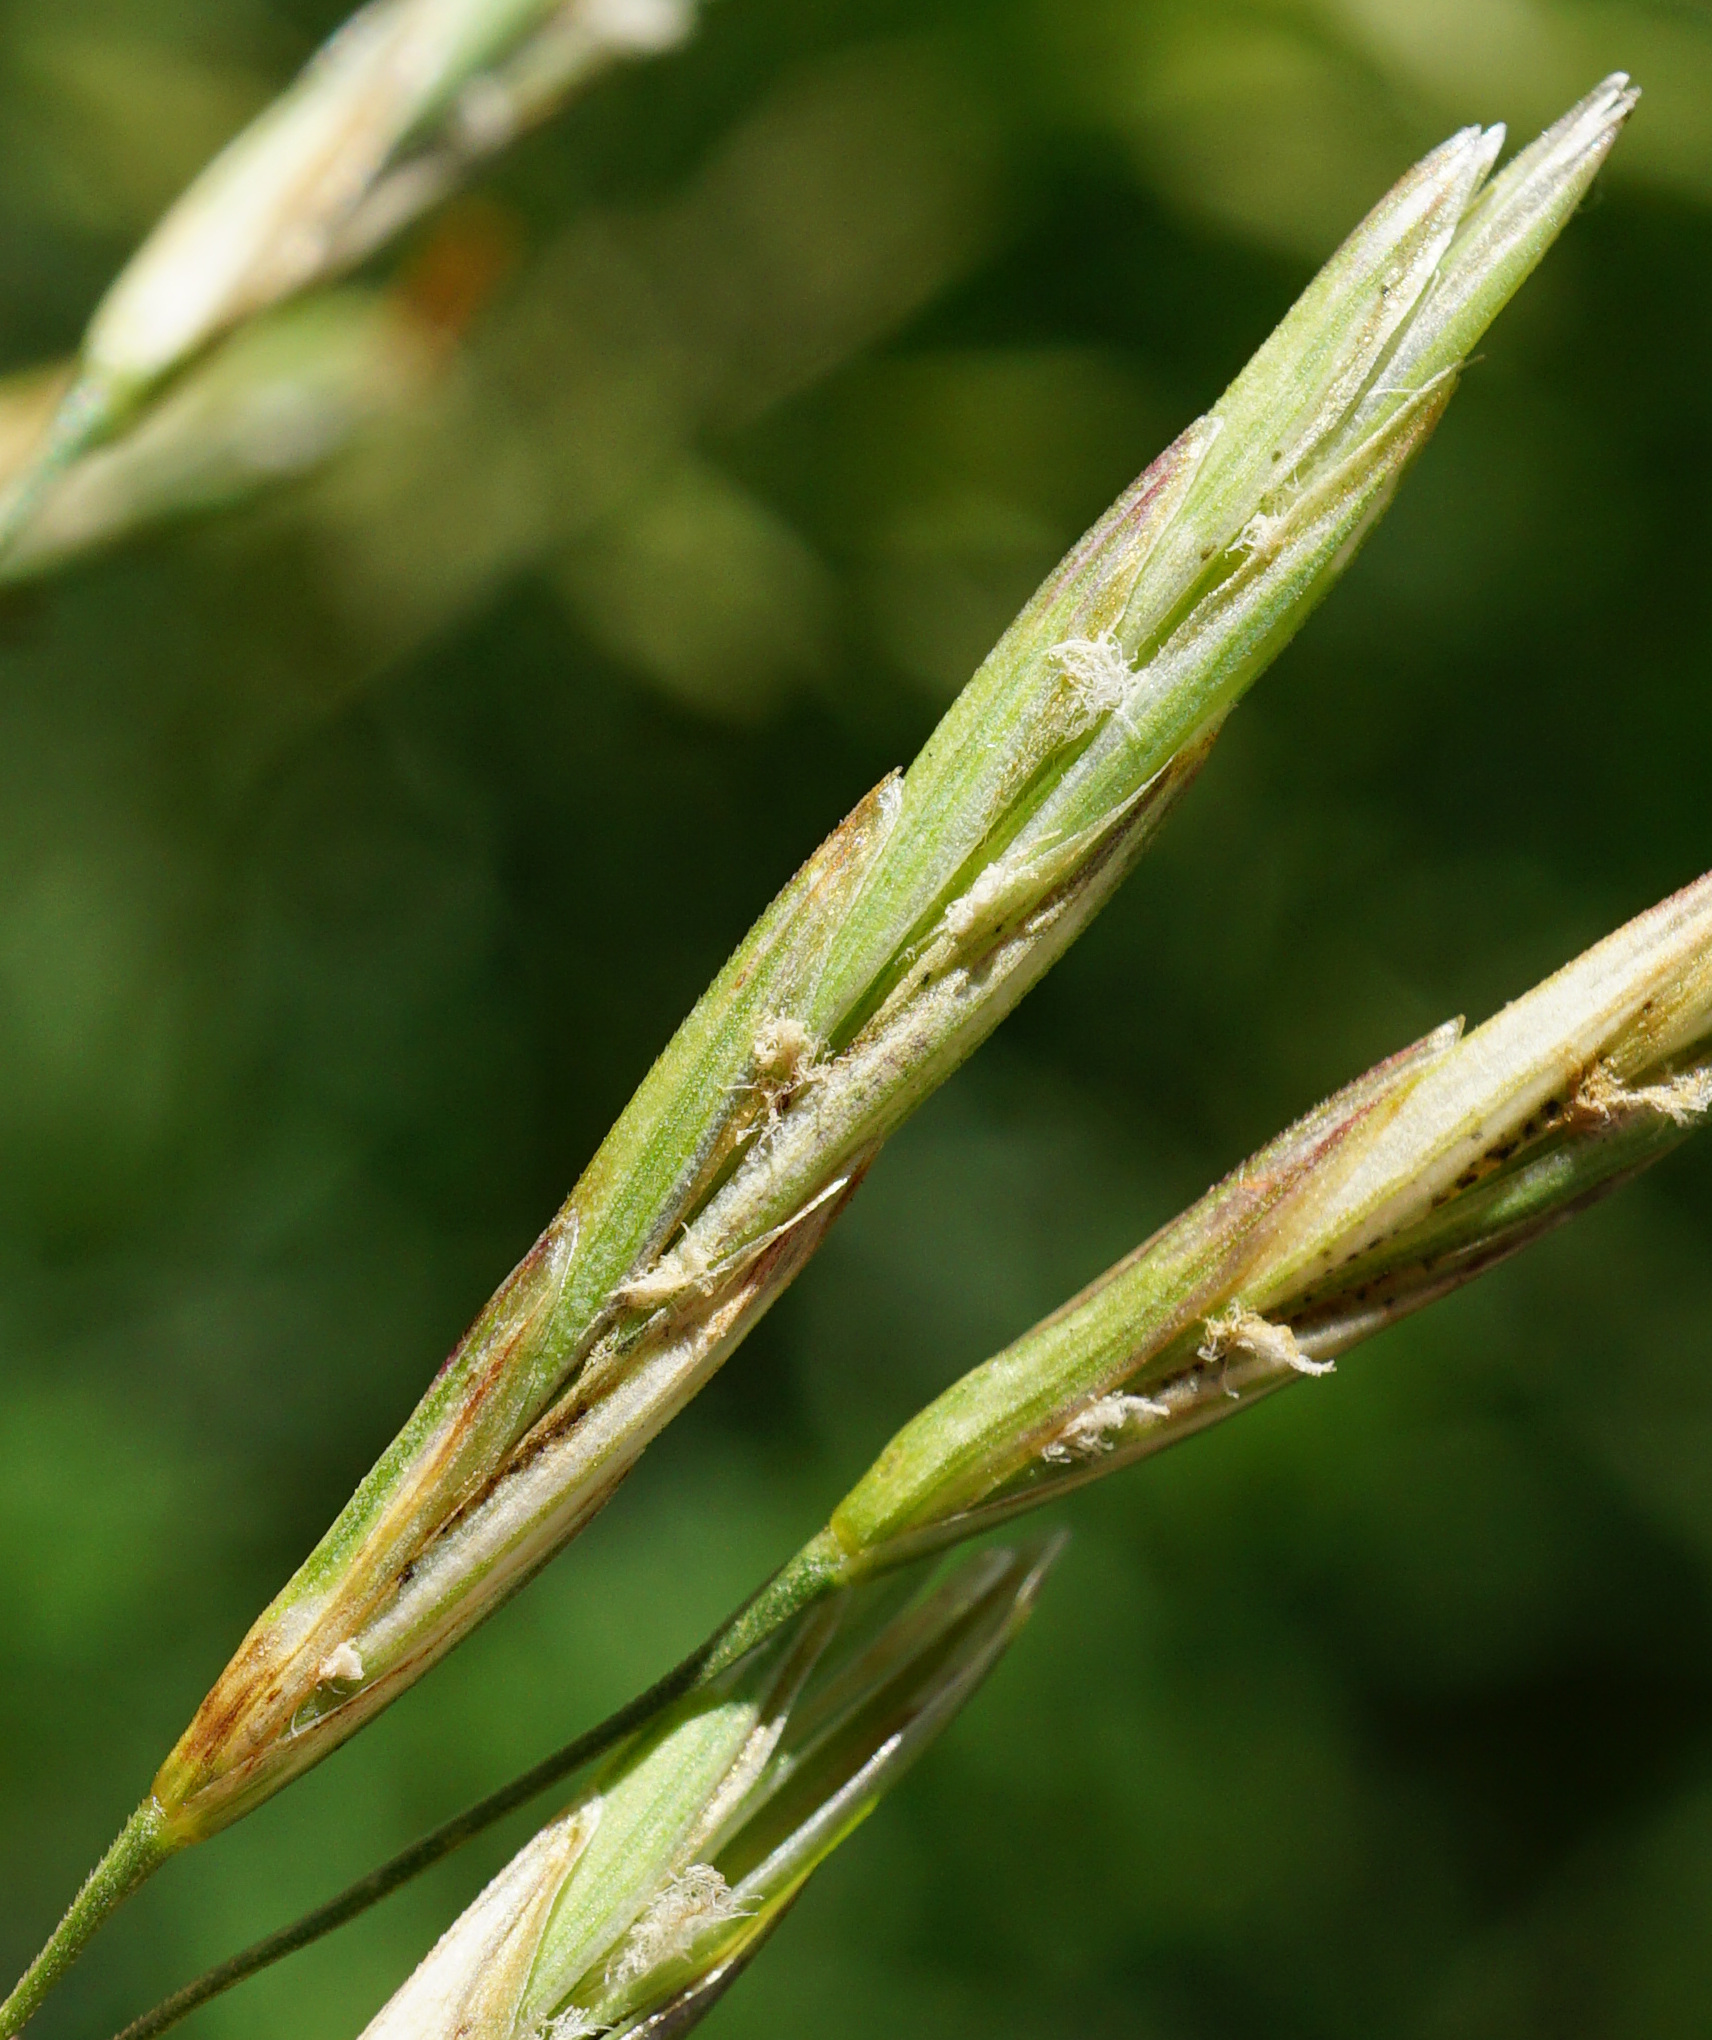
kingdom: Plantae
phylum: Tracheophyta
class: Liliopsida
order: Poales
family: Poaceae
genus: Bromus
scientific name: Bromus inermis
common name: Smooth brome
